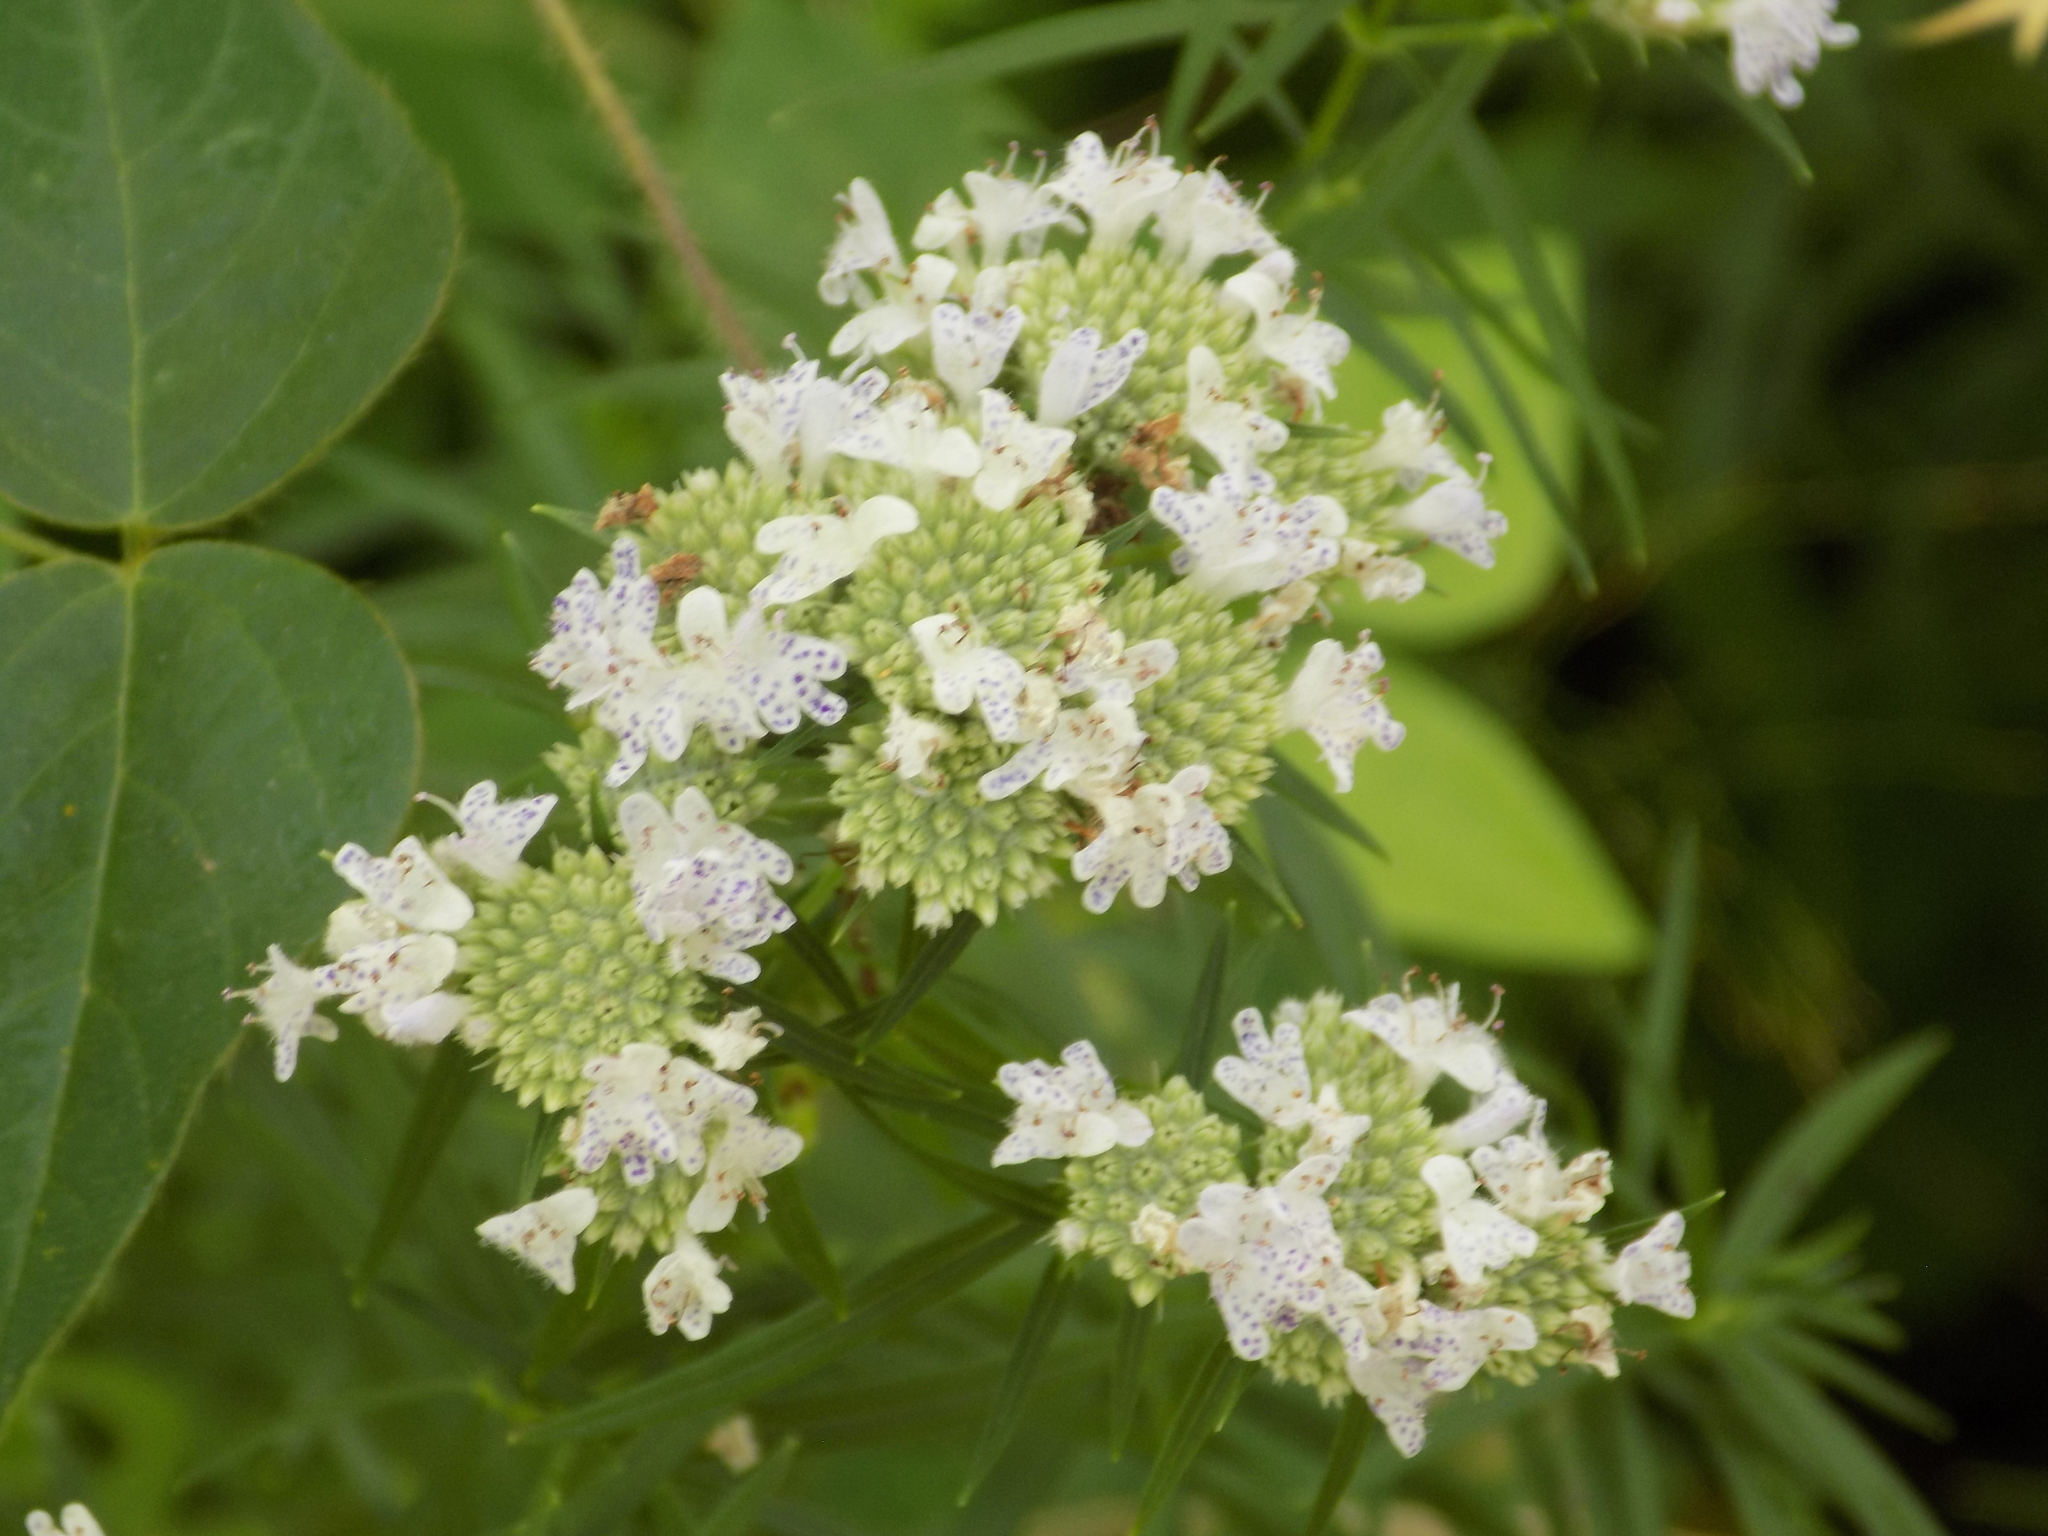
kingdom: Plantae
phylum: Tracheophyta
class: Magnoliopsida
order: Lamiales
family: Lamiaceae
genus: Pycnanthemum
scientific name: Pycnanthemum tenuifolium
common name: Narrow-leaf mountain-mint
